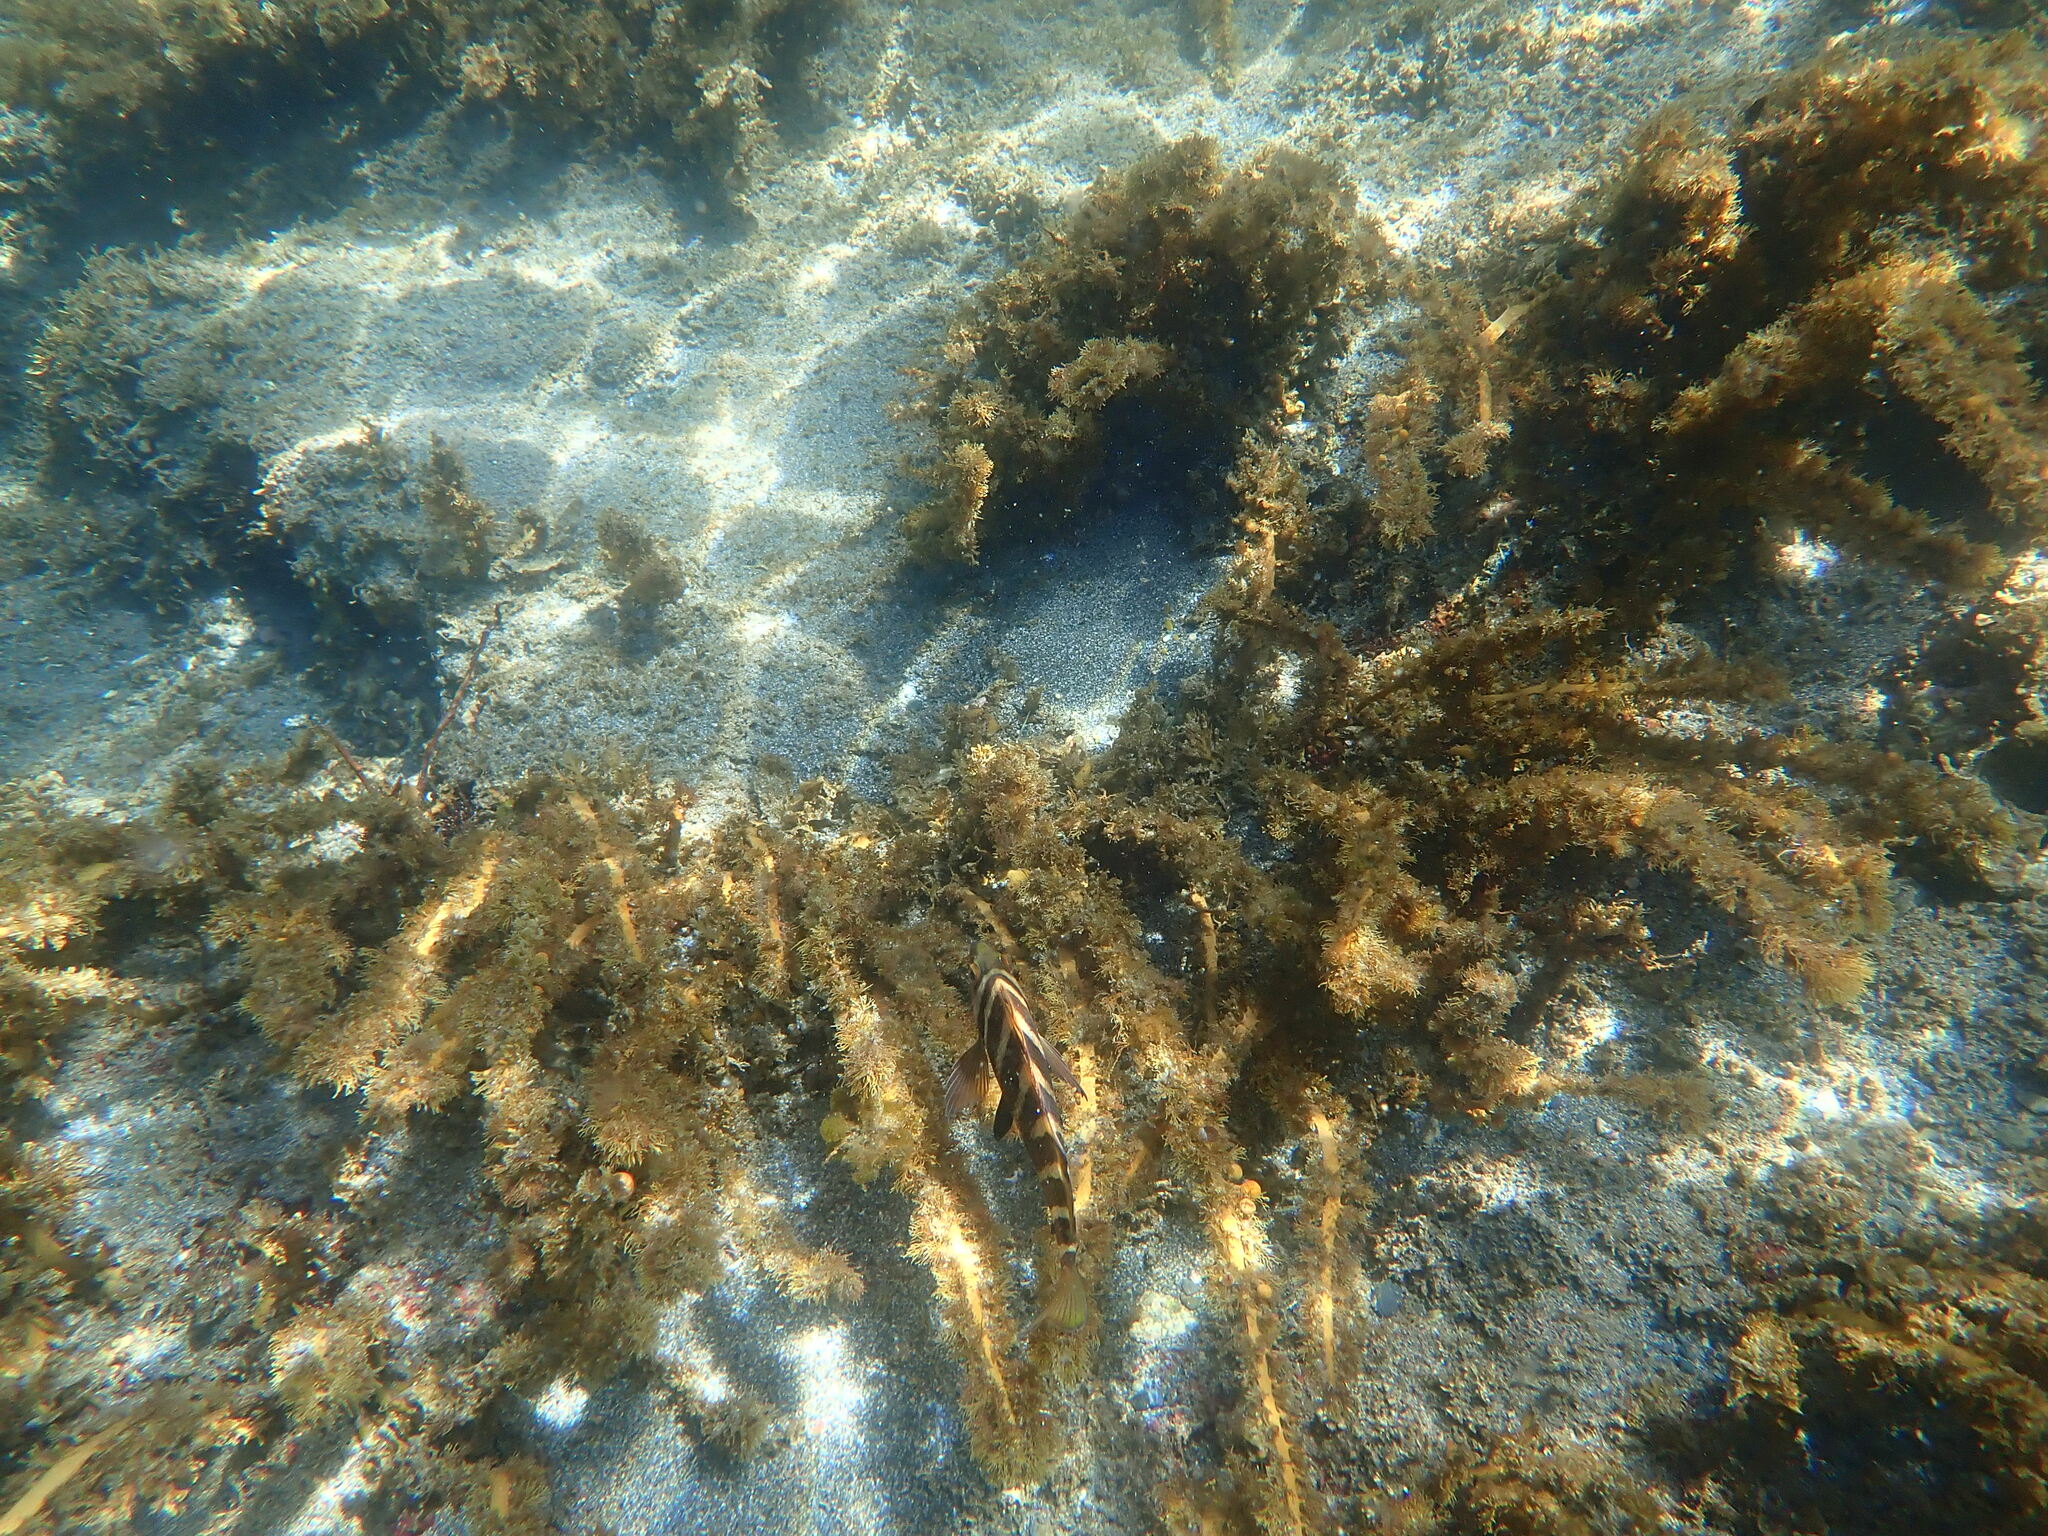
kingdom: Animalia
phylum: Chordata
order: Perciformes
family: Cheilodactylidae
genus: Cheilodactylus
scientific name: Cheilodactylus spectabilis
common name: Red moki
